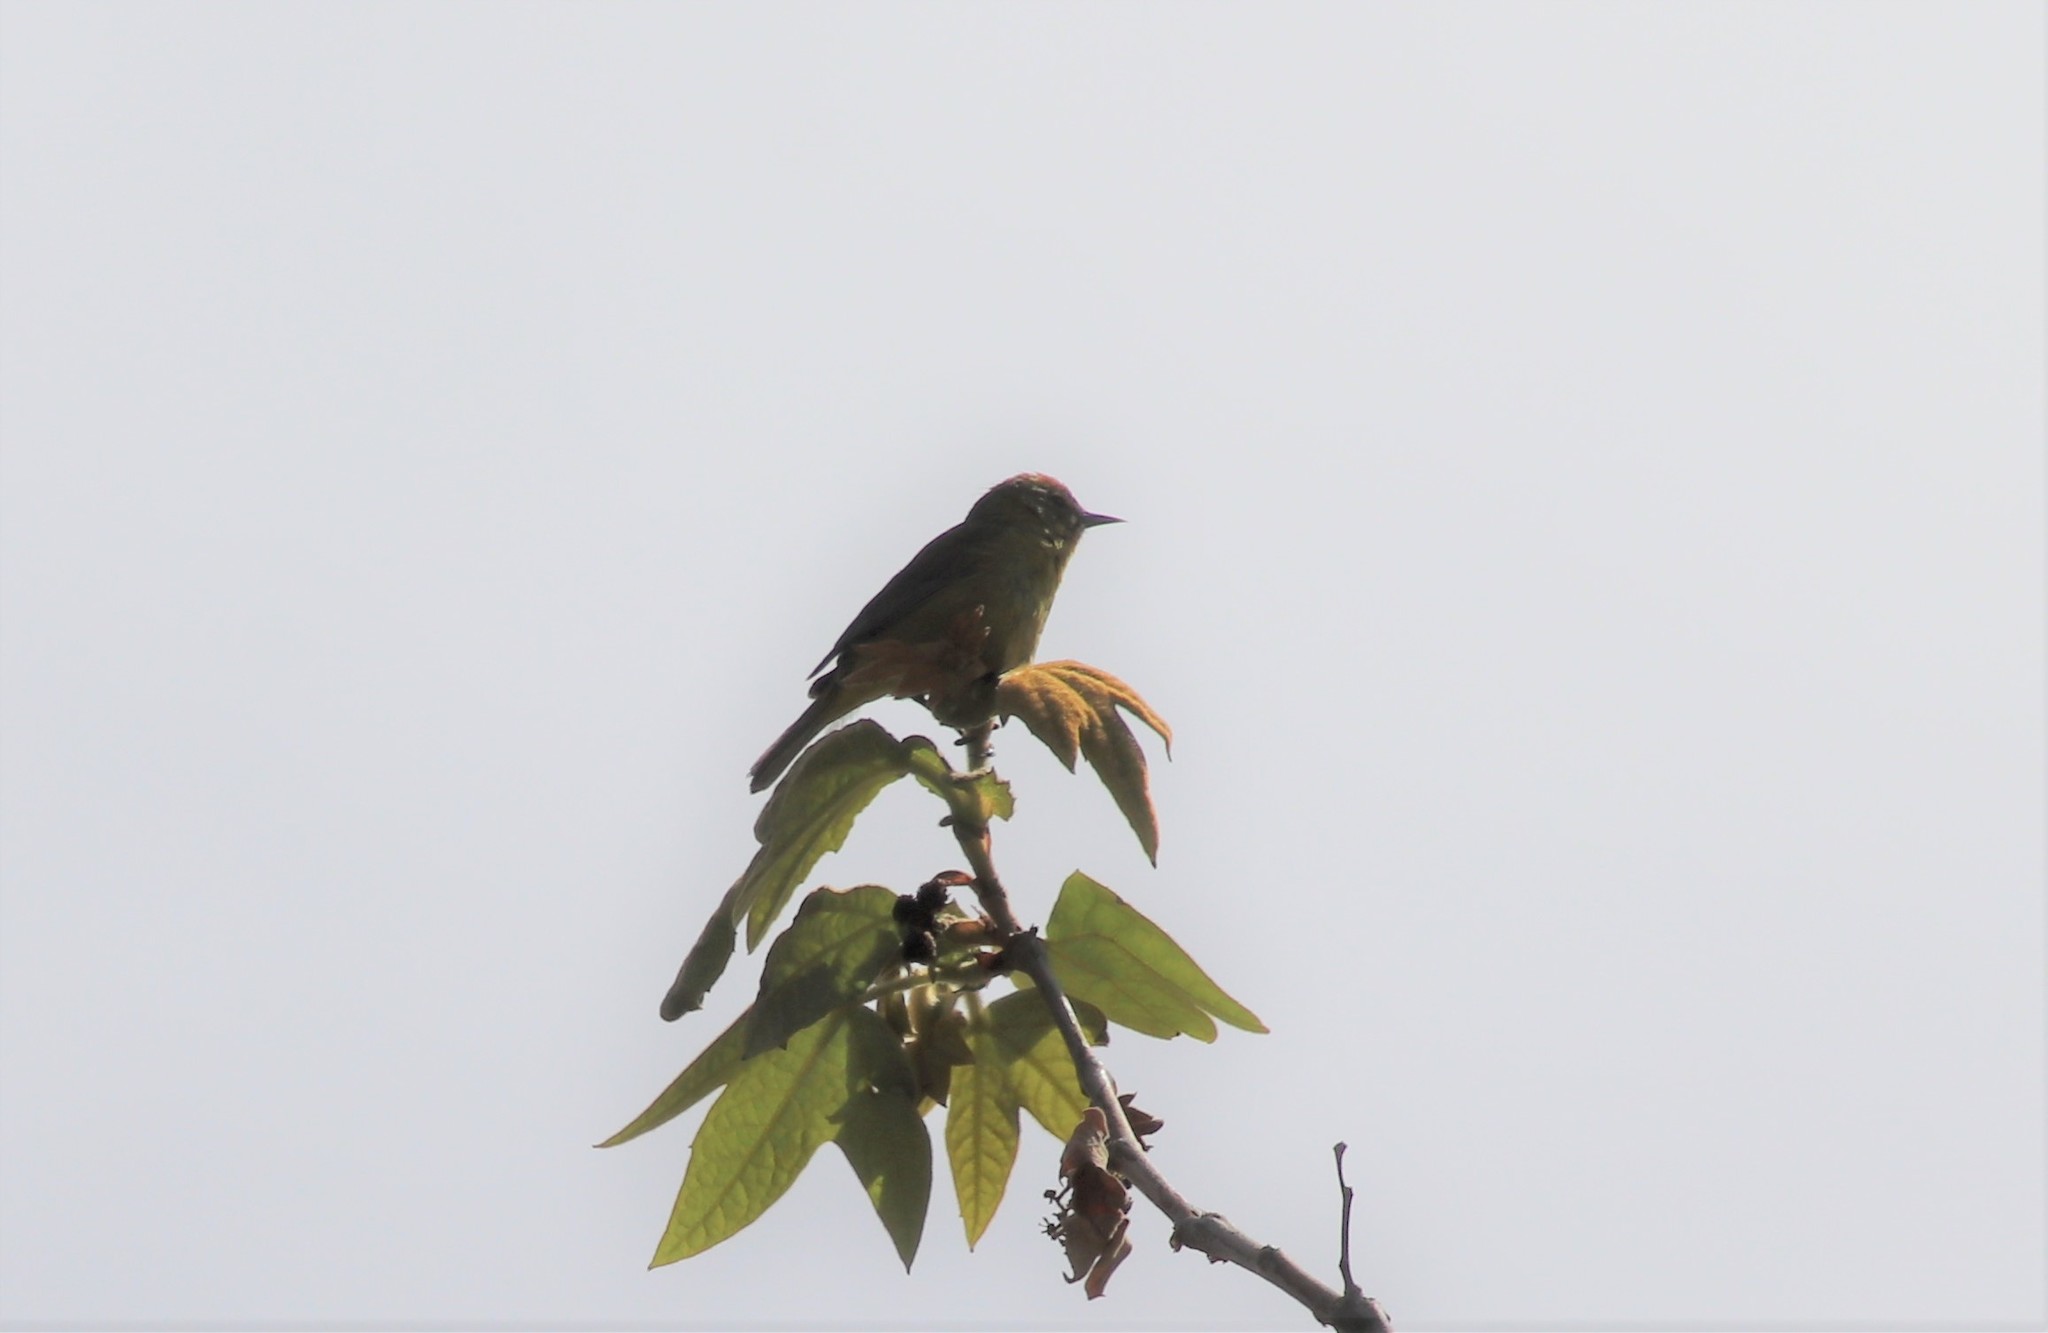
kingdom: Animalia
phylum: Chordata
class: Aves
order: Passeriformes
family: Parulidae
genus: Leiothlypis
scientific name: Leiothlypis celata
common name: Orange-crowned warbler
